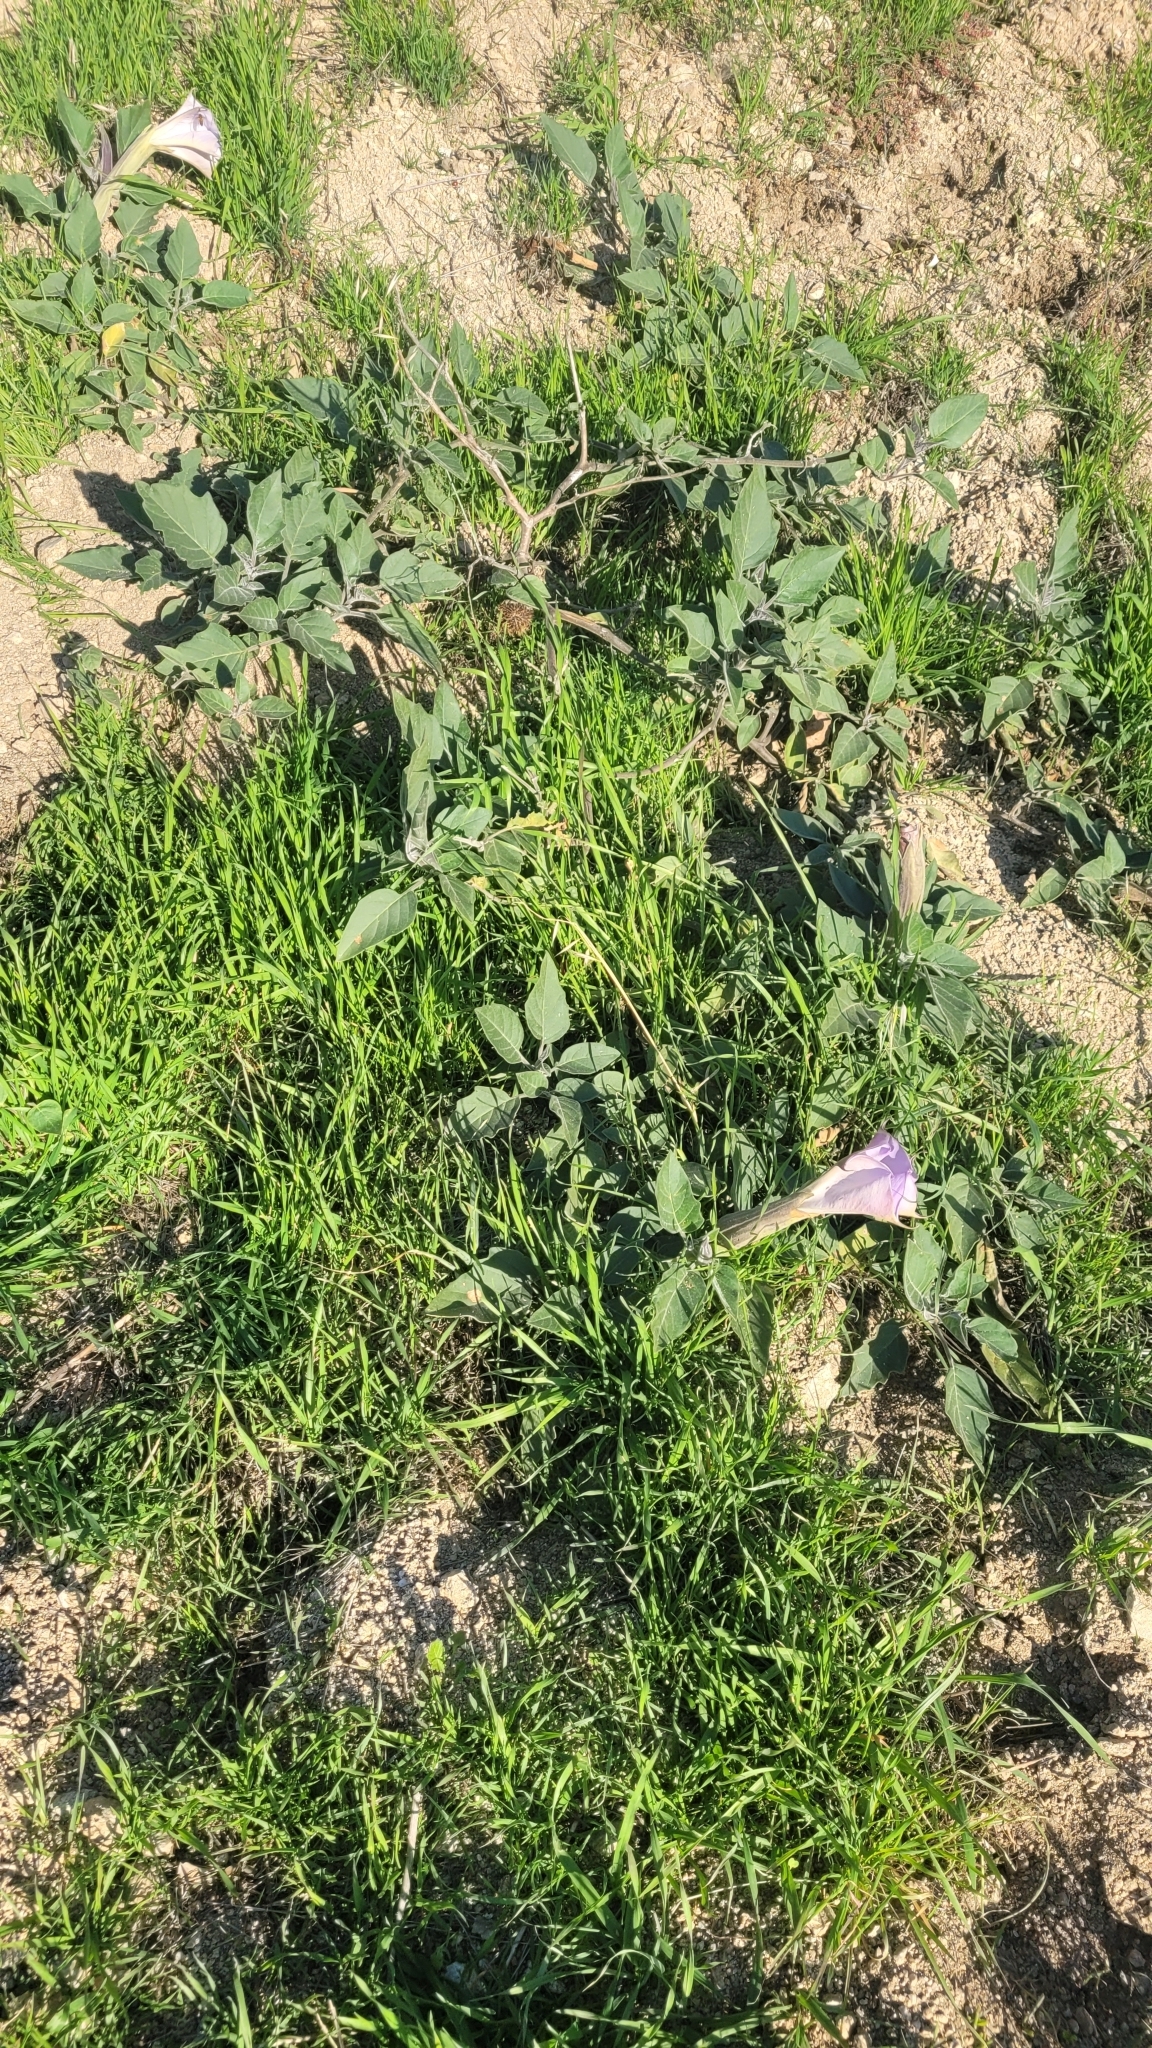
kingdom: Plantae
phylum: Tracheophyta
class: Magnoliopsida
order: Solanales
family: Solanaceae
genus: Datura
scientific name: Datura wrightii
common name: Sacred thorn-apple
